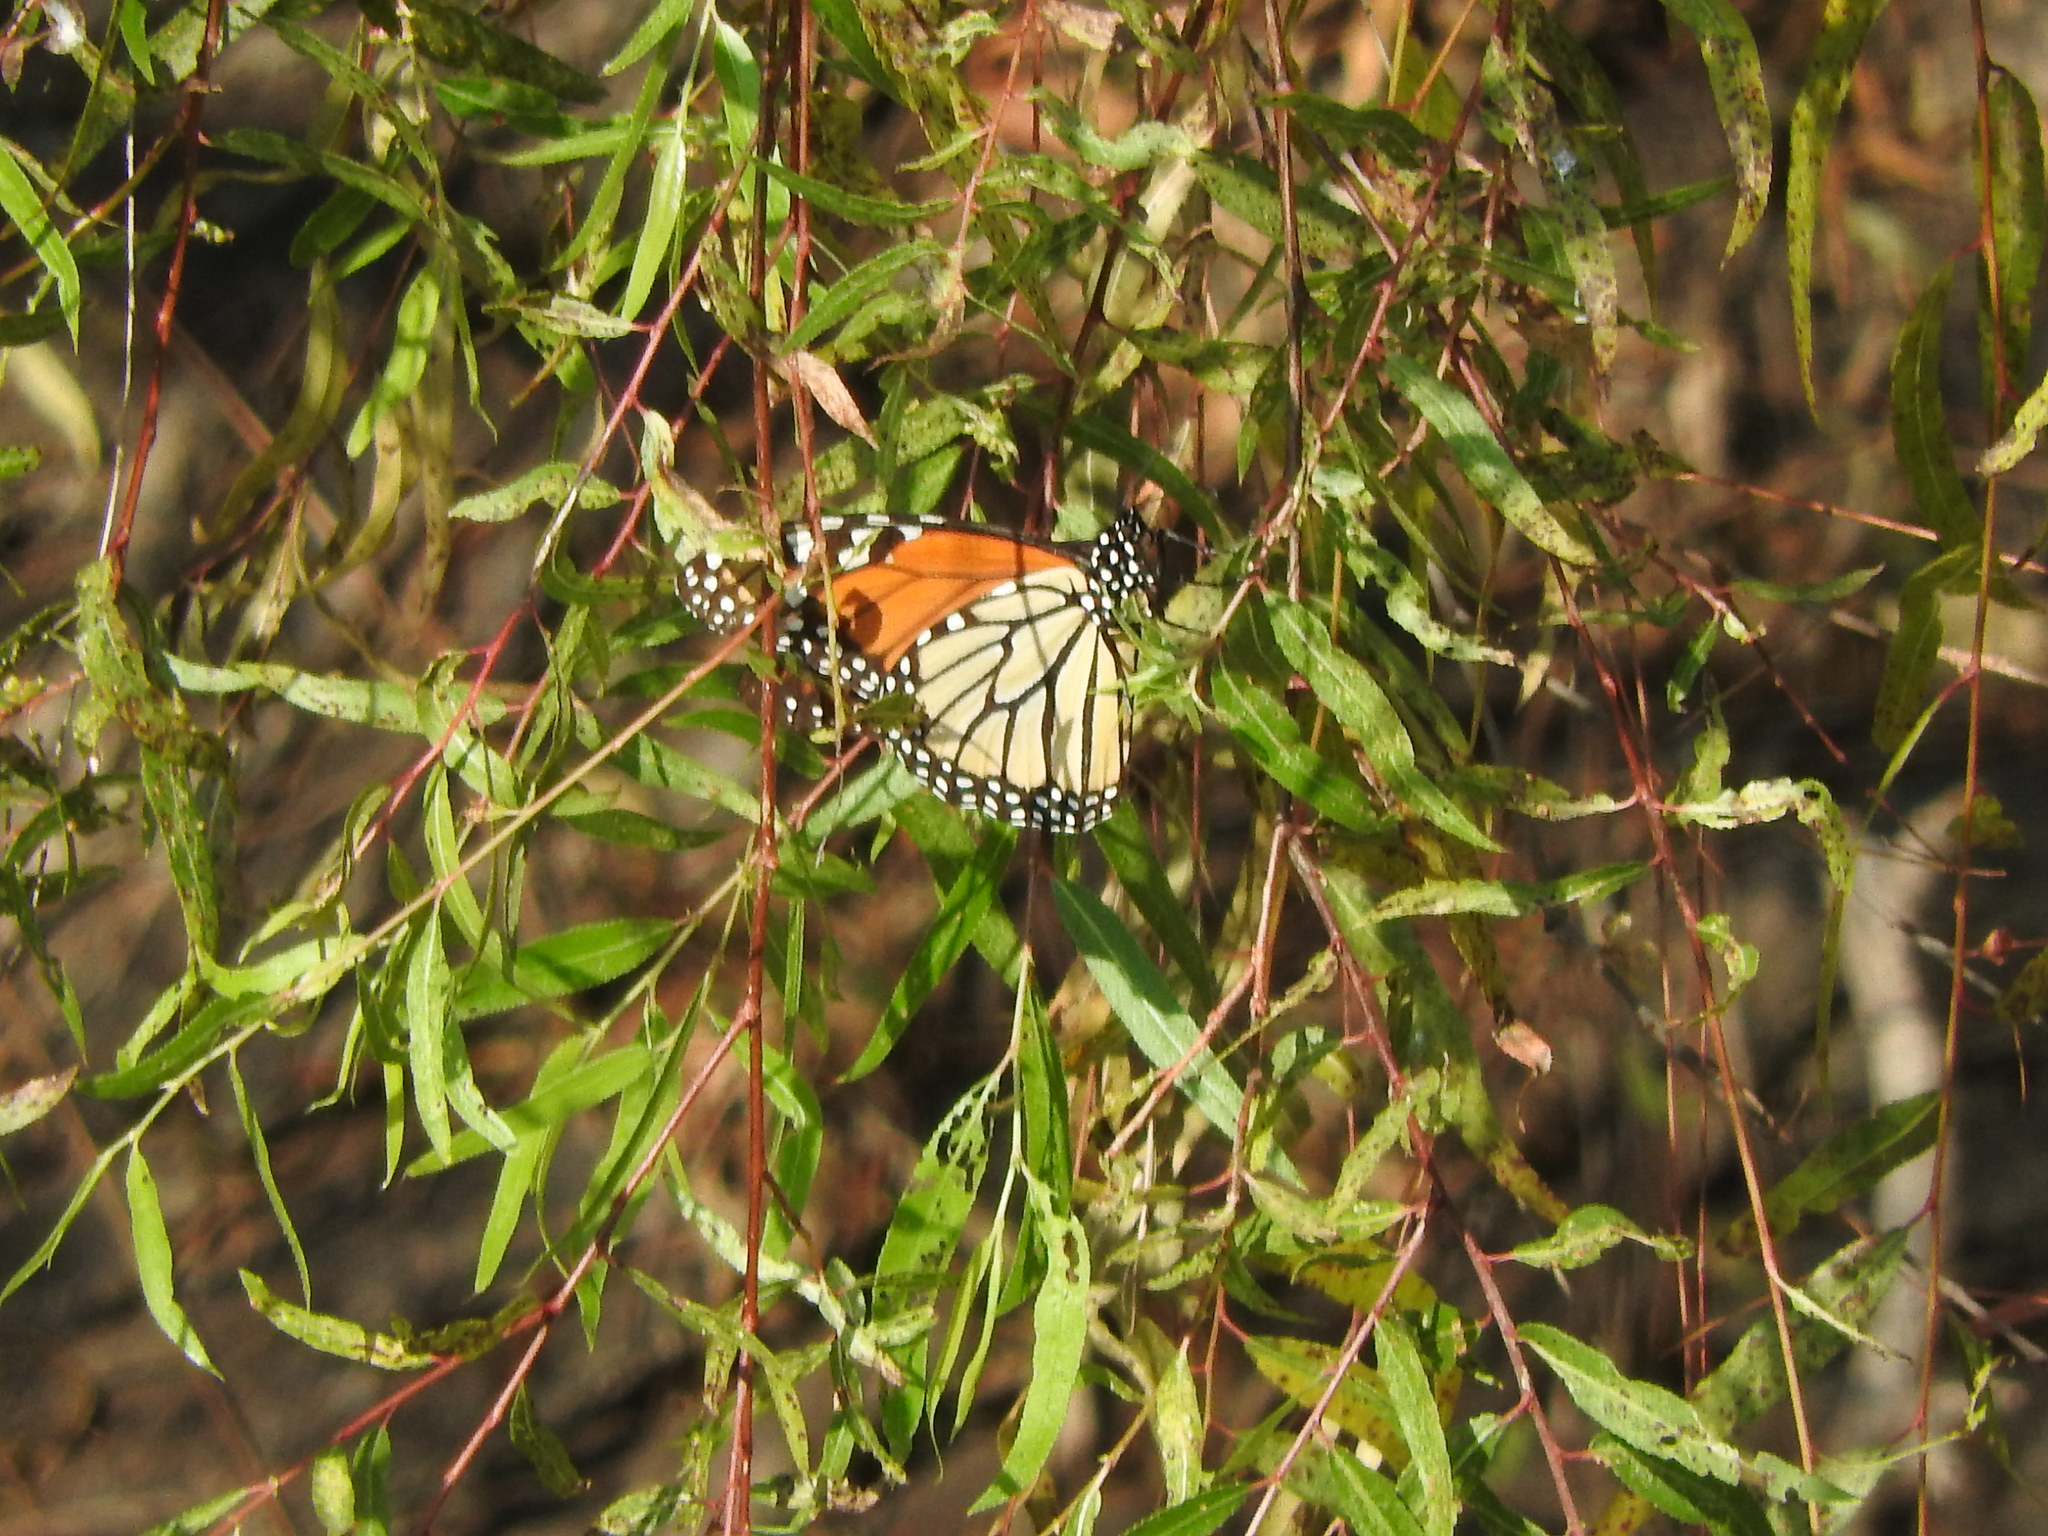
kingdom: Animalia
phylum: Arthropoda
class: Insecta
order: Lepidoptera
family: Nymphalidae
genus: Danaus
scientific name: Danaus plexippus
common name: Monarch
